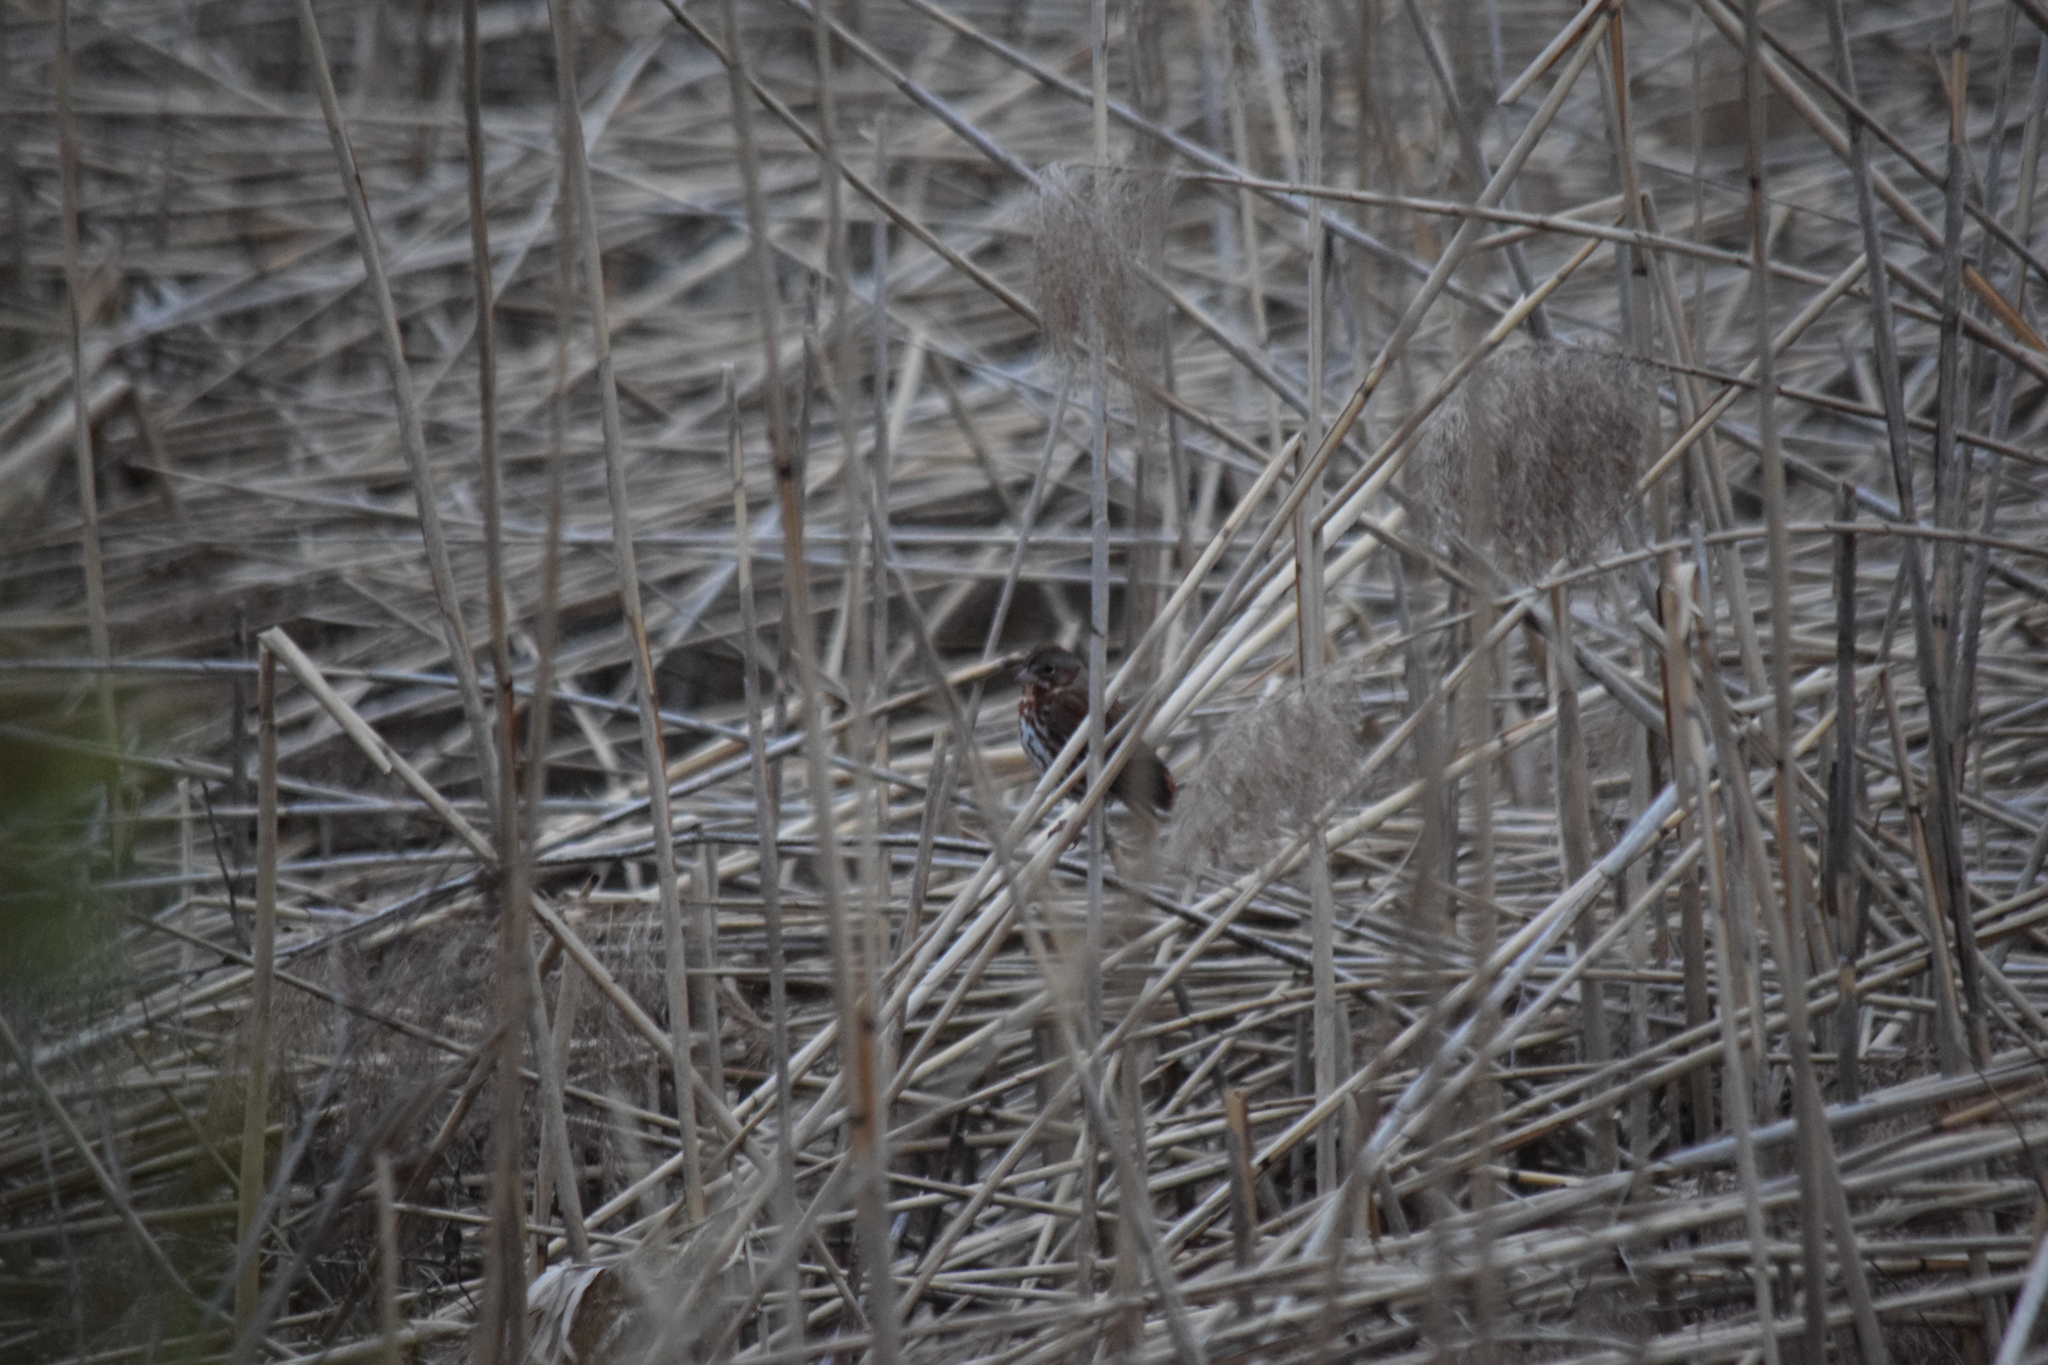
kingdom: Animalia
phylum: Chordata
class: Aves
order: Passeriformes
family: Passerellidae
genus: Passerella
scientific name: Passerella iliaca
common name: Fox sparrow
